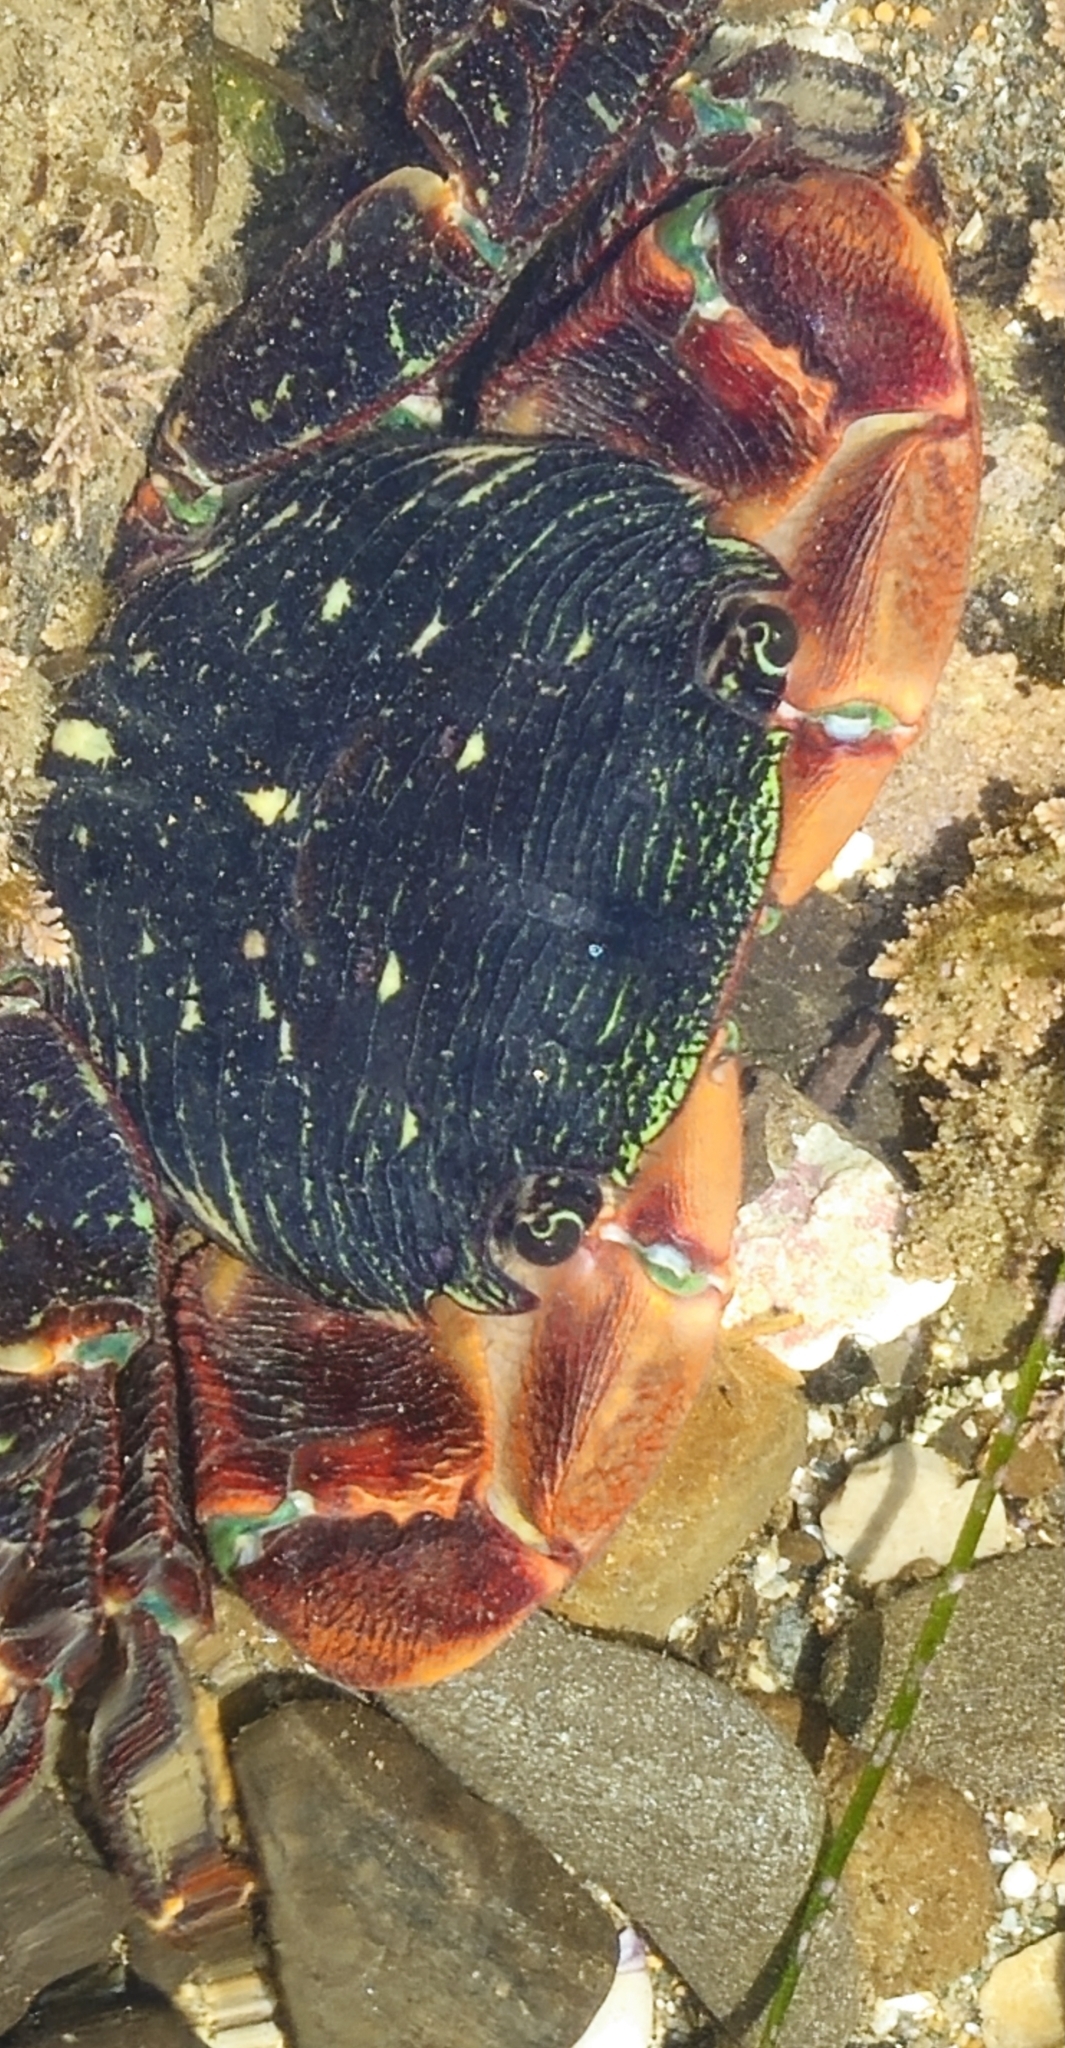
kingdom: Animalia
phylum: Arthropoda
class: Malacostraca
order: Decapoda
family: Grapsidae
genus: Pachygrapsus
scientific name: Pachygrapsus crassipes
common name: Striped shore crab
